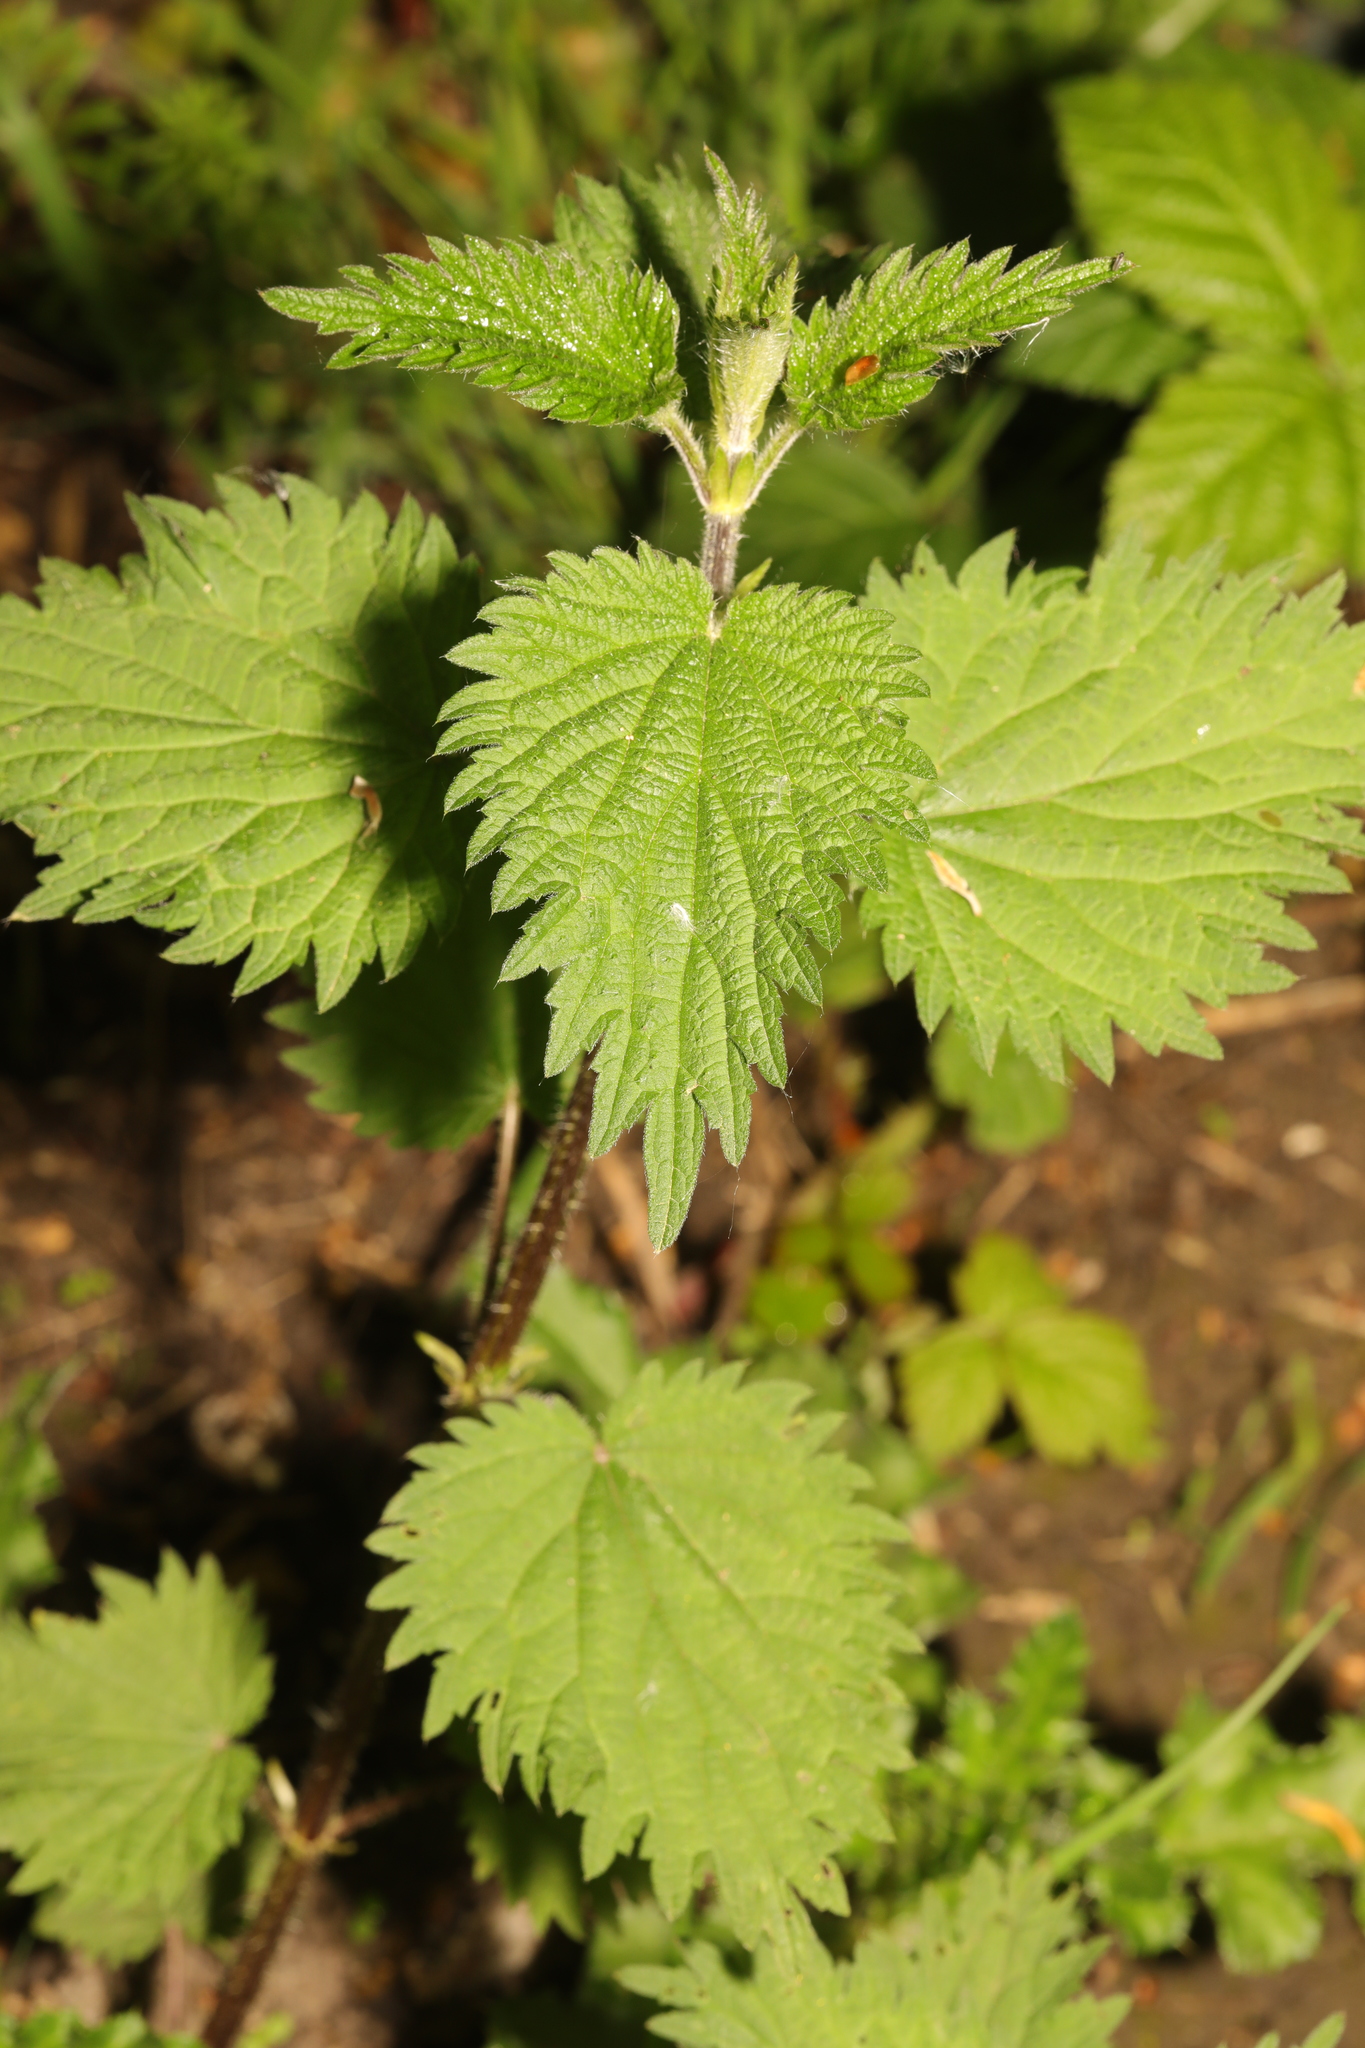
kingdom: Plantae
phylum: Tracheophyta
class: Magnoliopsida
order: Rosales
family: Urticaceae
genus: Urtica
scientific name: Urtica dioica
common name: Common nettle
